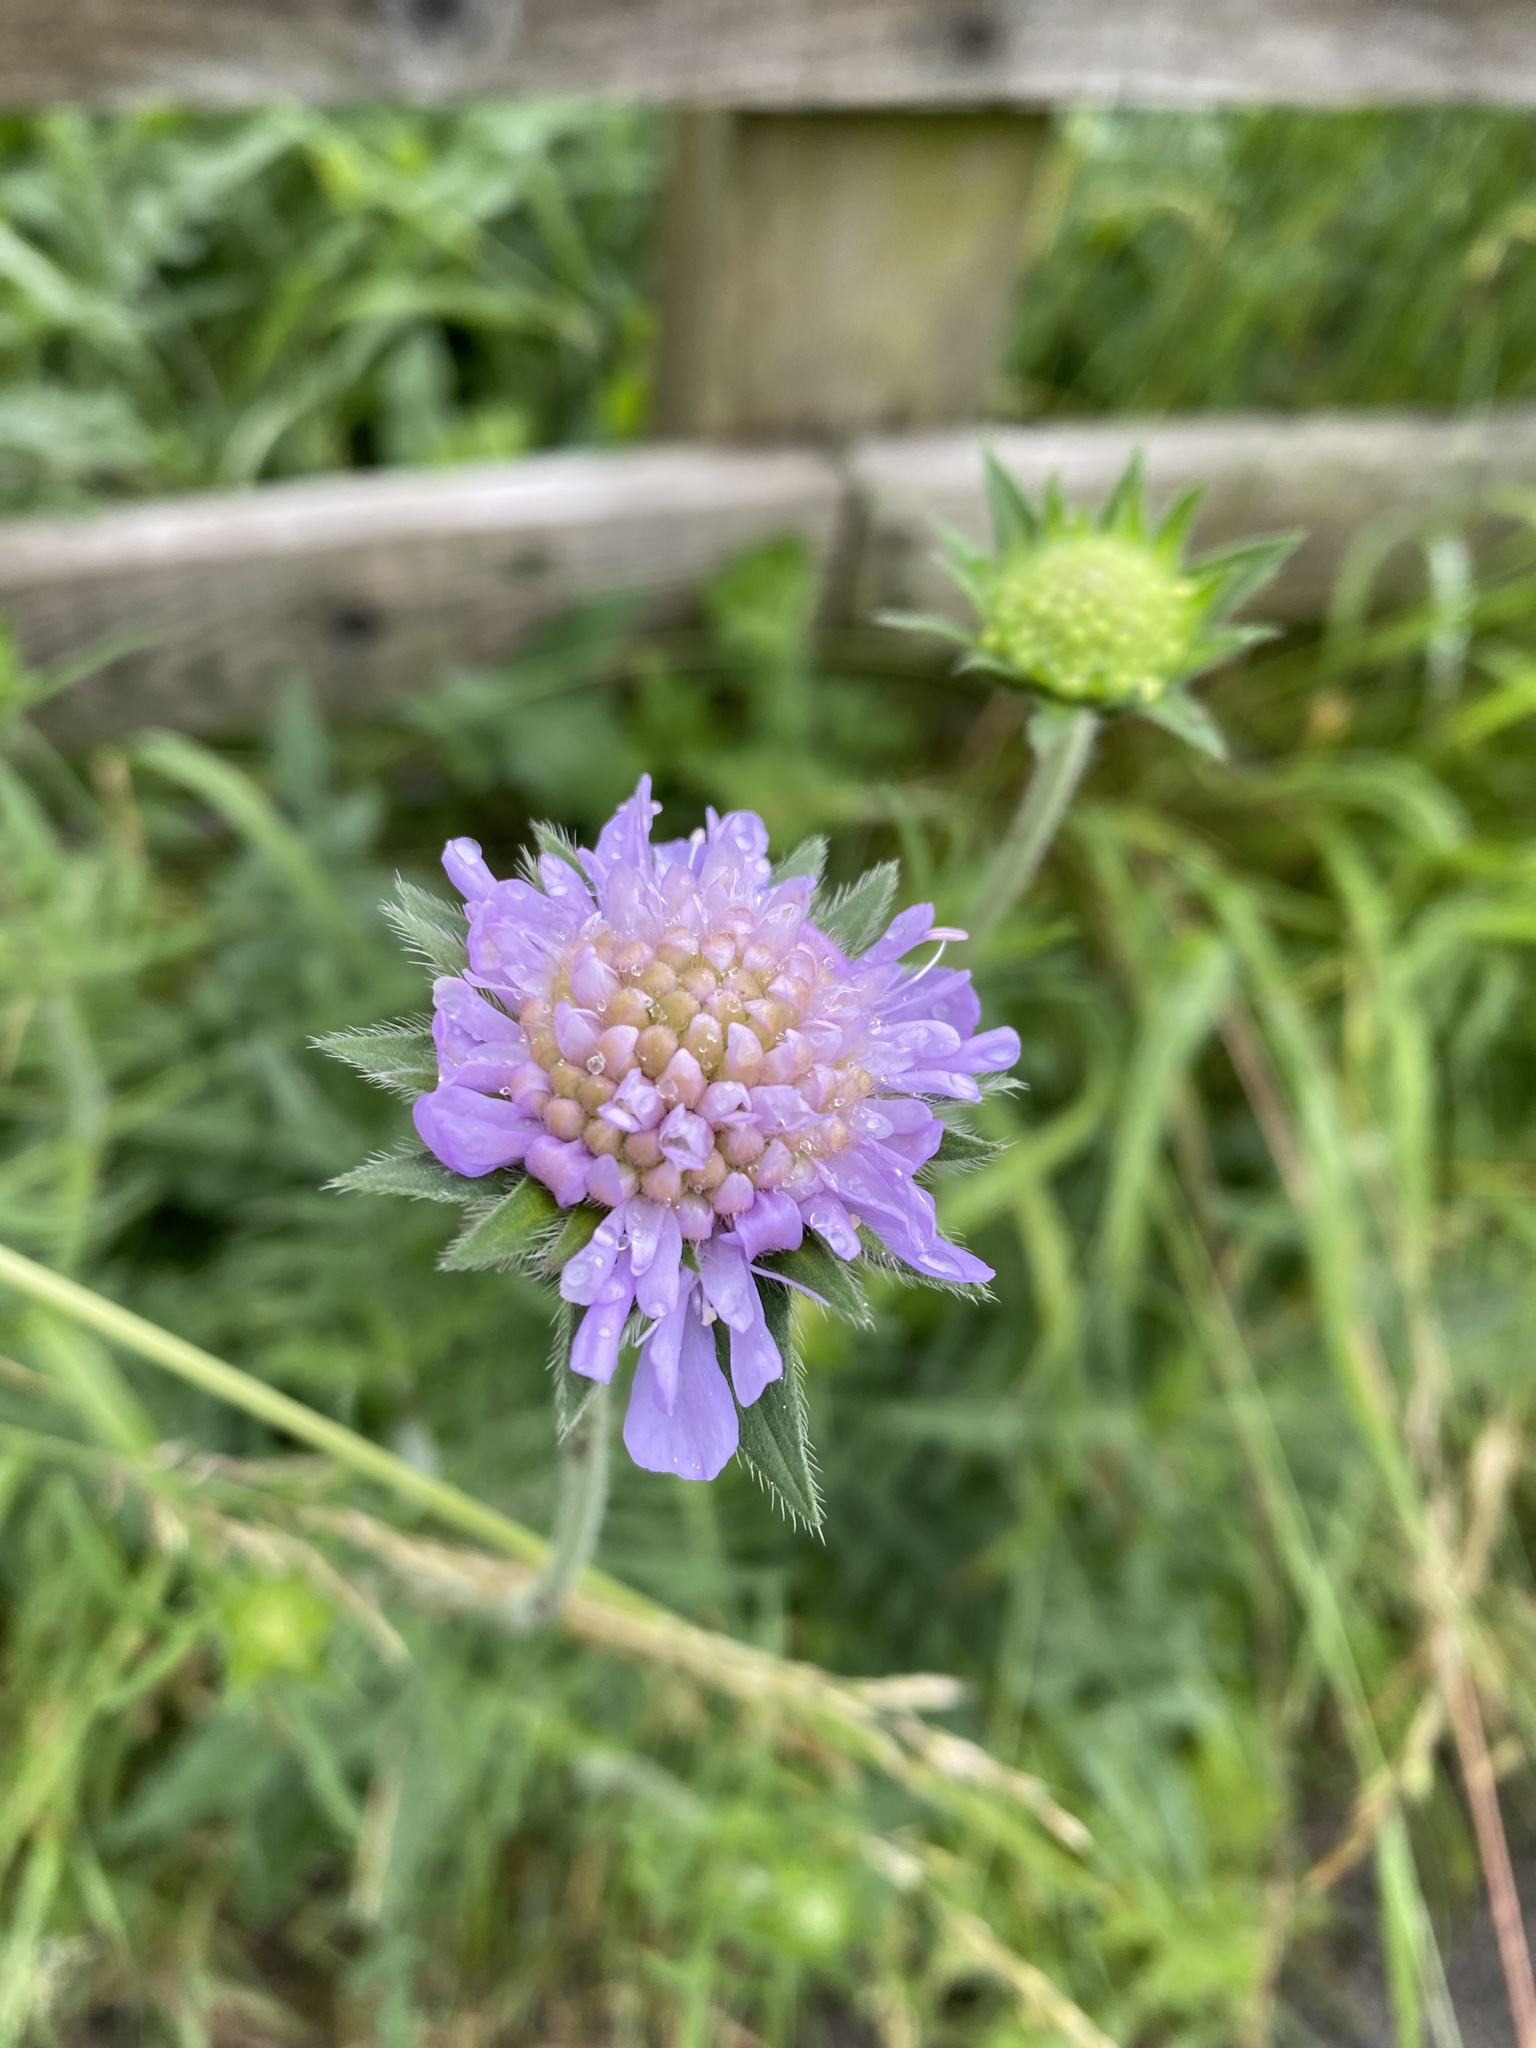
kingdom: Plantae
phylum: Tracheophyta
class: Magnoliopsida
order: Dipsacales
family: Caprifoliaceae
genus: Knautia
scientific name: Knautia arvensis
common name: Field scabiosa
